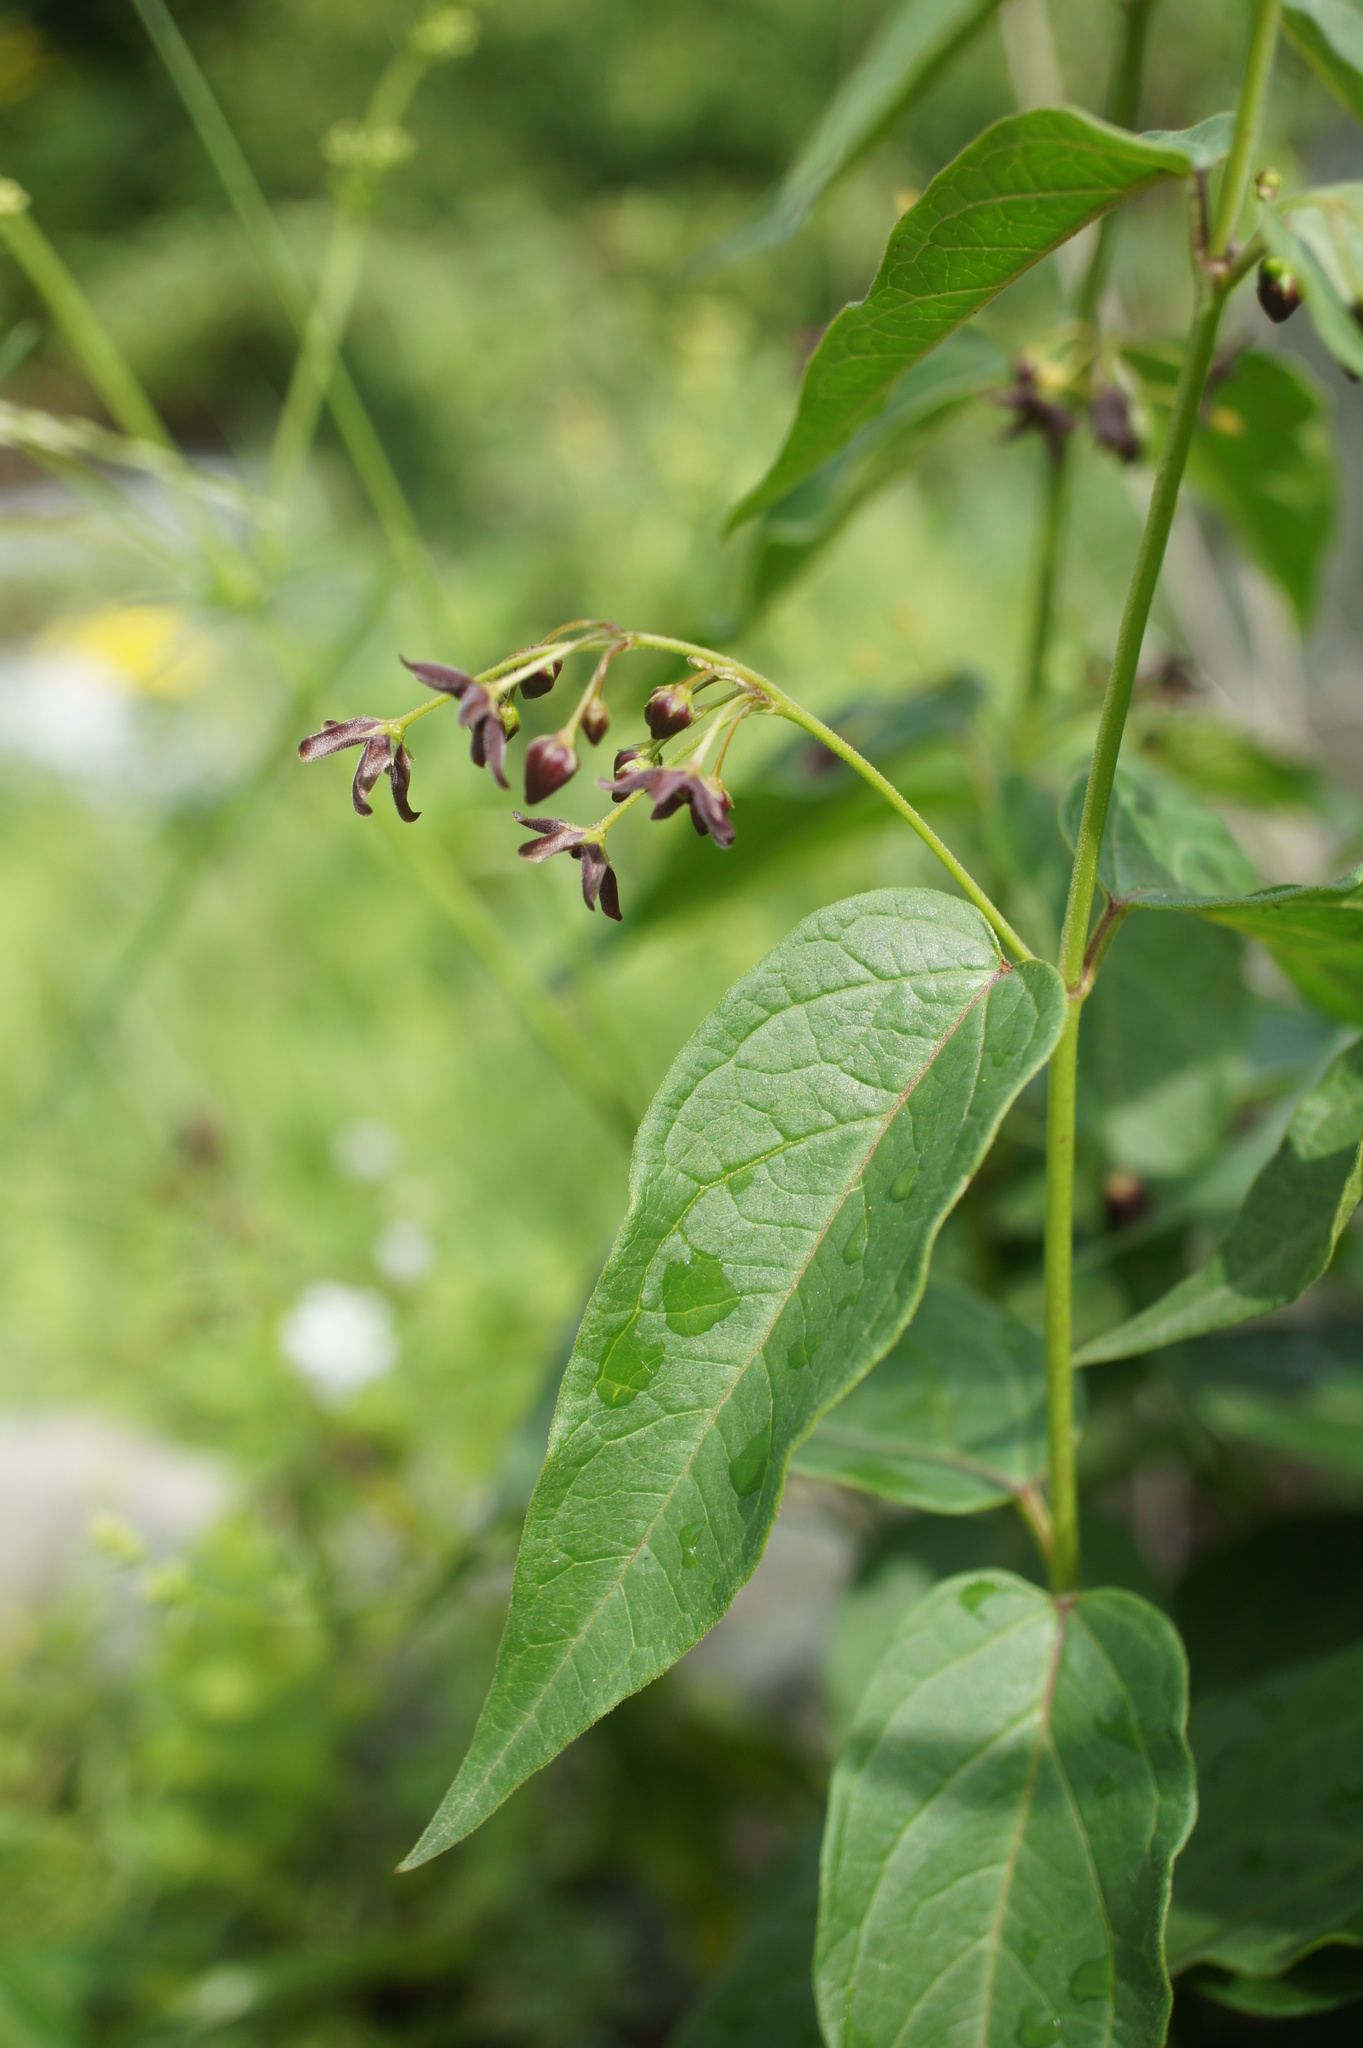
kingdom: Plantae
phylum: Tracheophyta
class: Magnoliopsida
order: Gentianales
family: Apocynaceae
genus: Vincetoxicum
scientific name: Vincetoxicum funebre
